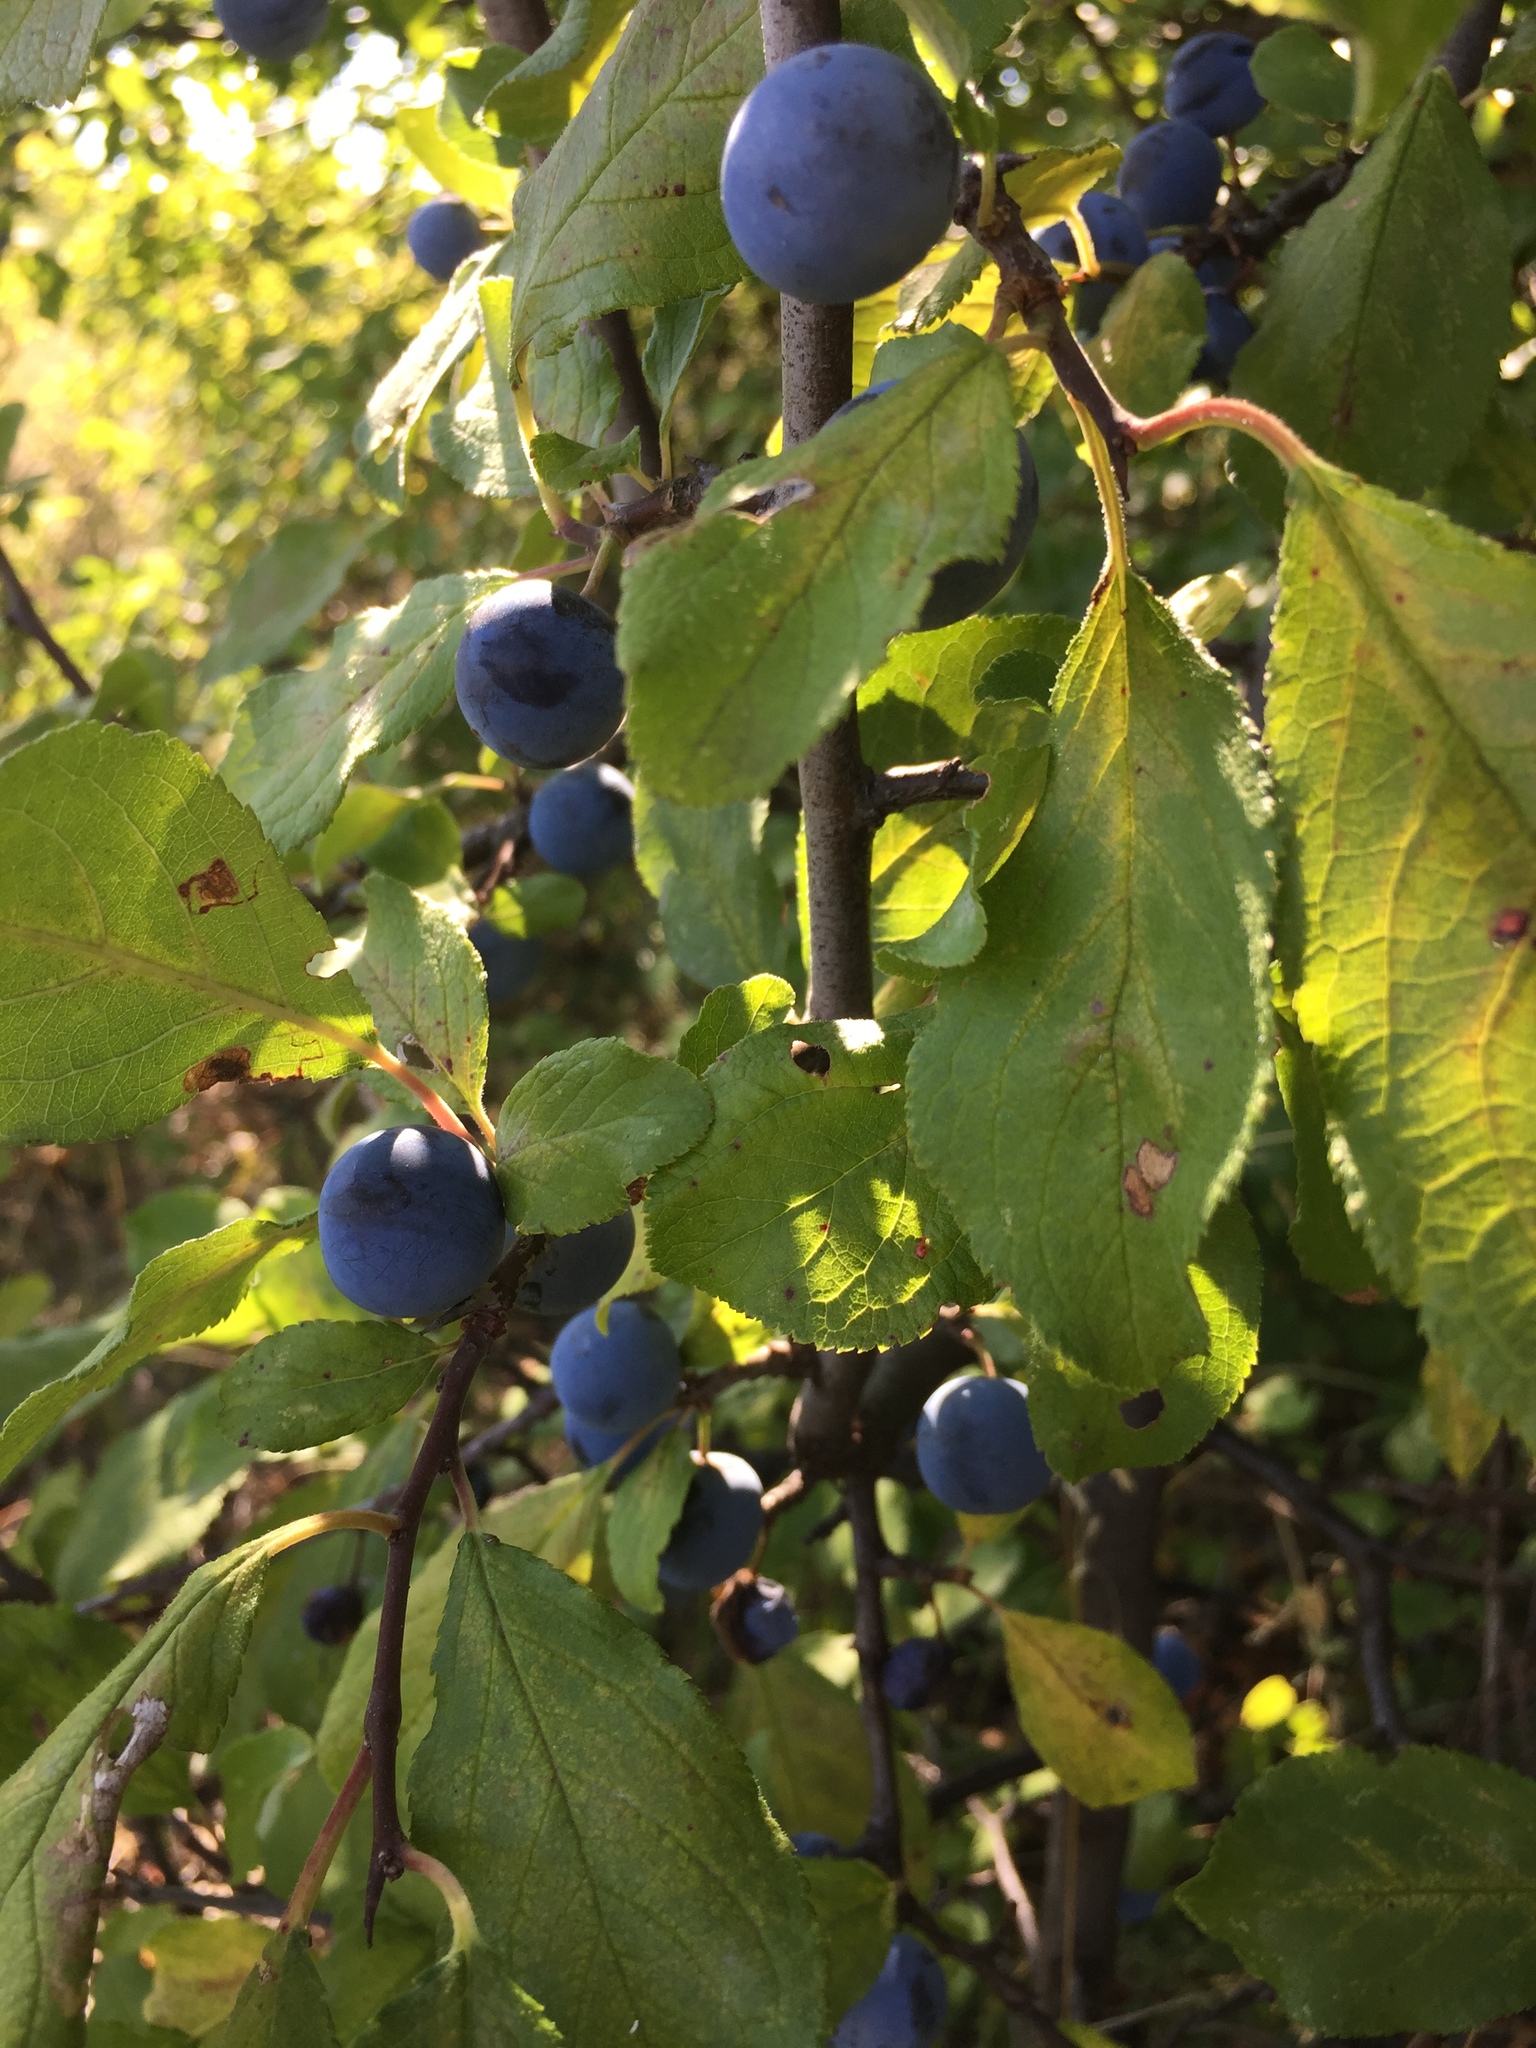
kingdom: Plantae
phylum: Tracheophyta
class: Magnoliopsida
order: Rosales
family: Rosaceae
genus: Prunus
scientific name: Prunus spinosa
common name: Blackthorn
